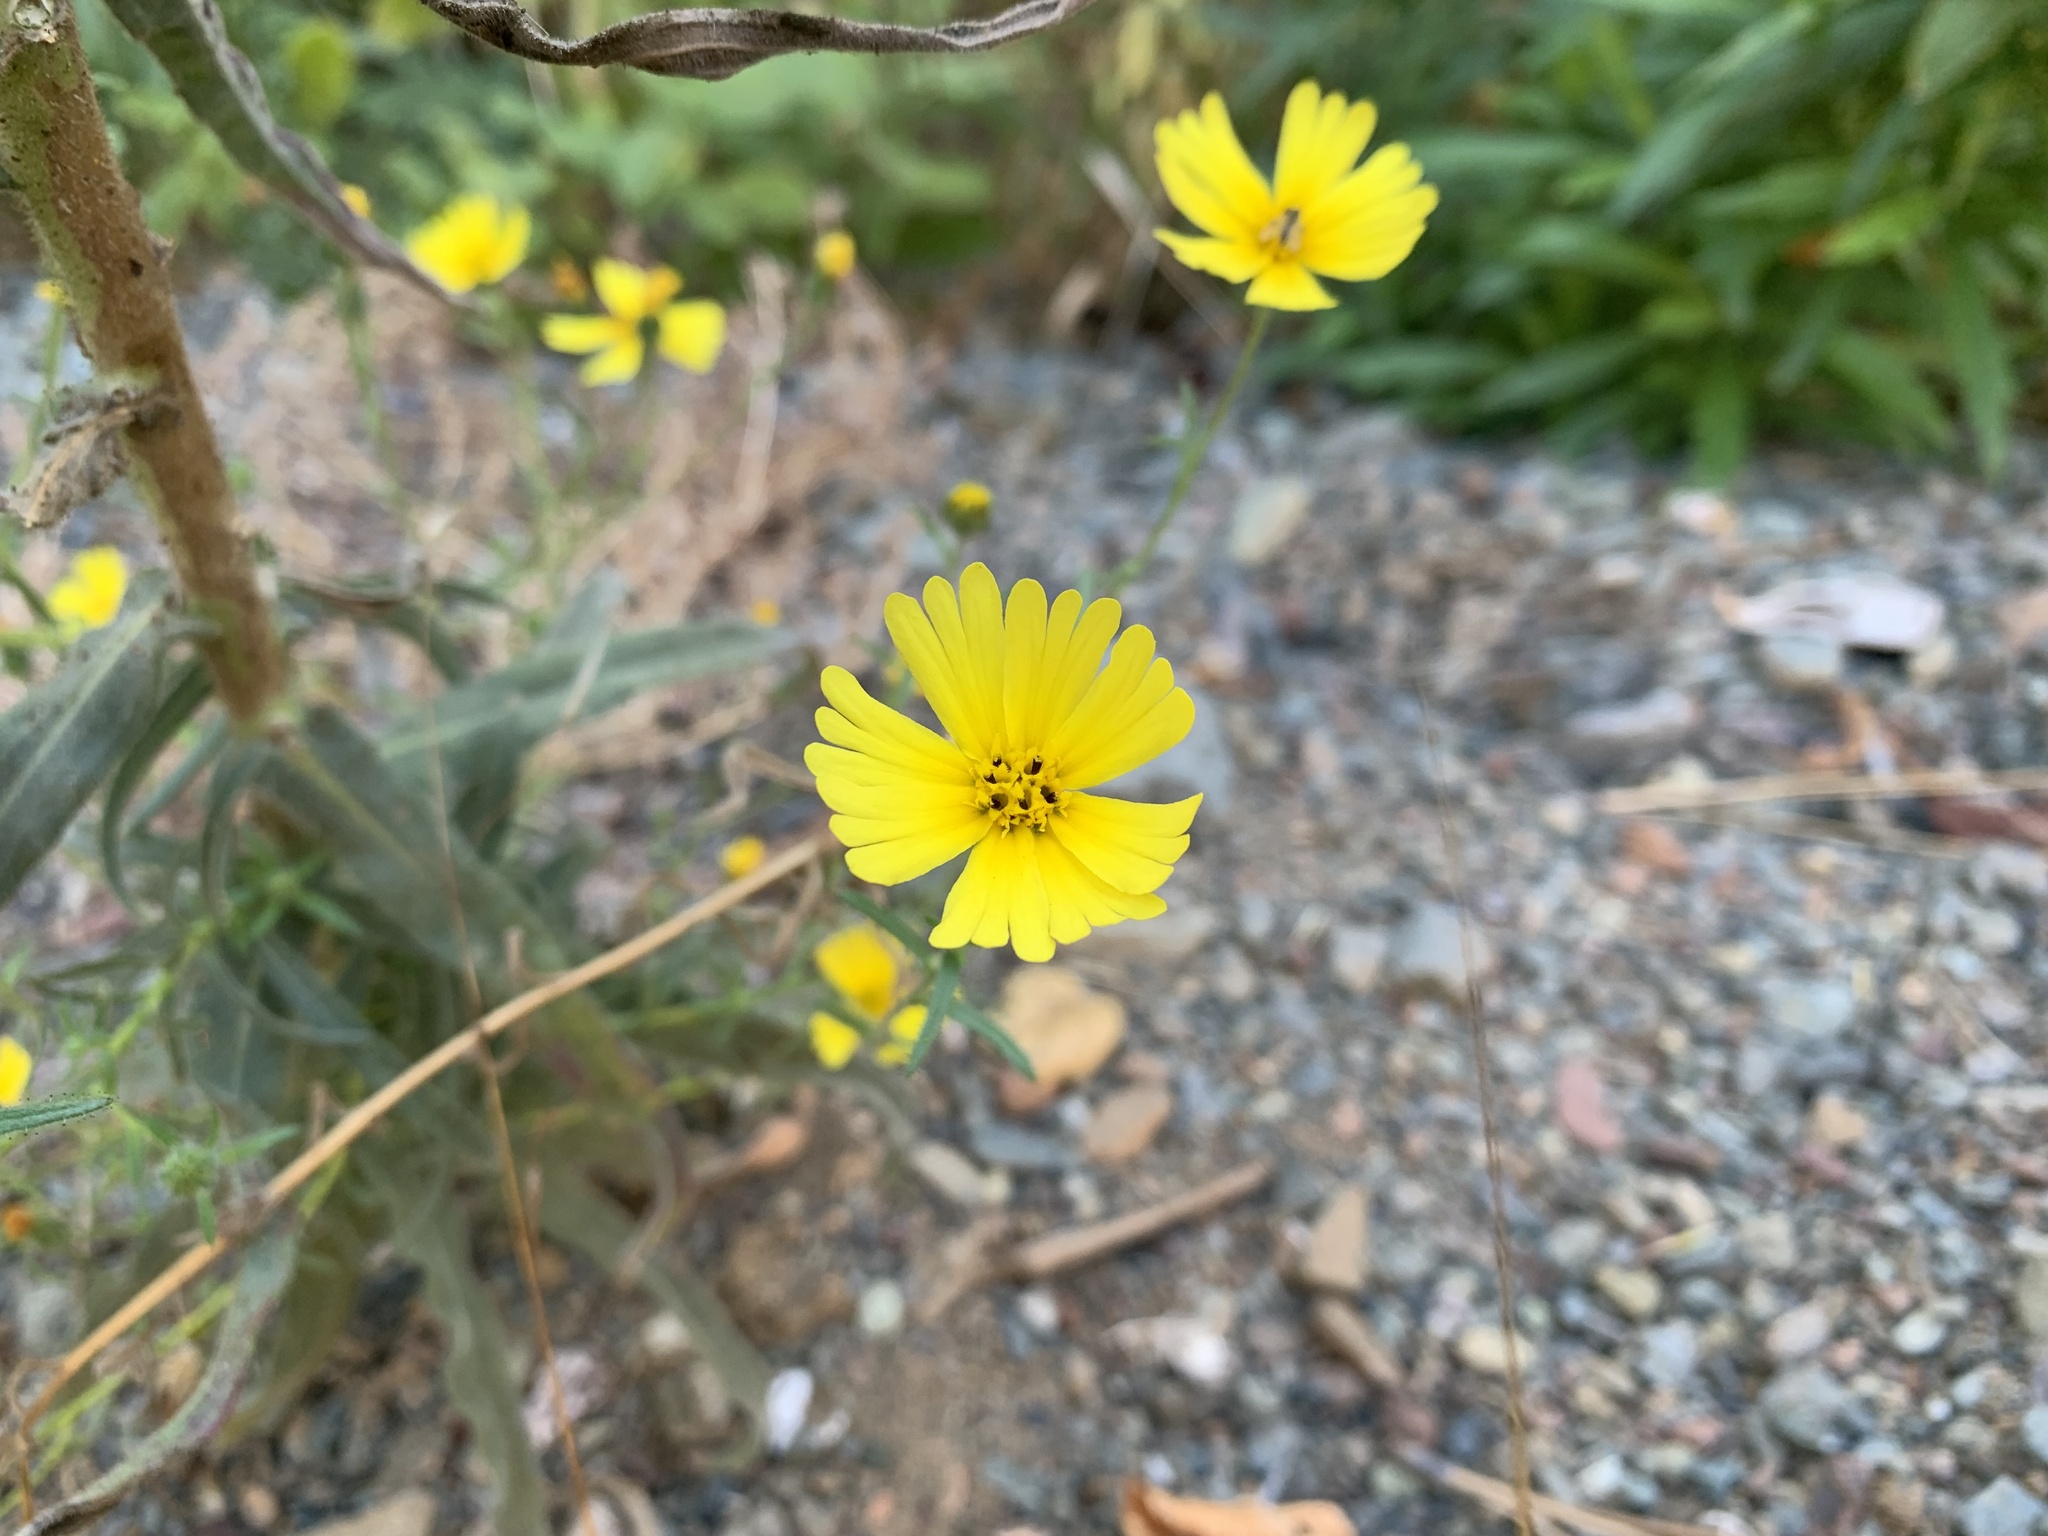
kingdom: Plantae
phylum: Tracheophyta
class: Magnoliopsida
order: Asterales
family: Asteraceae
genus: Madia
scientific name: Madia elegans
